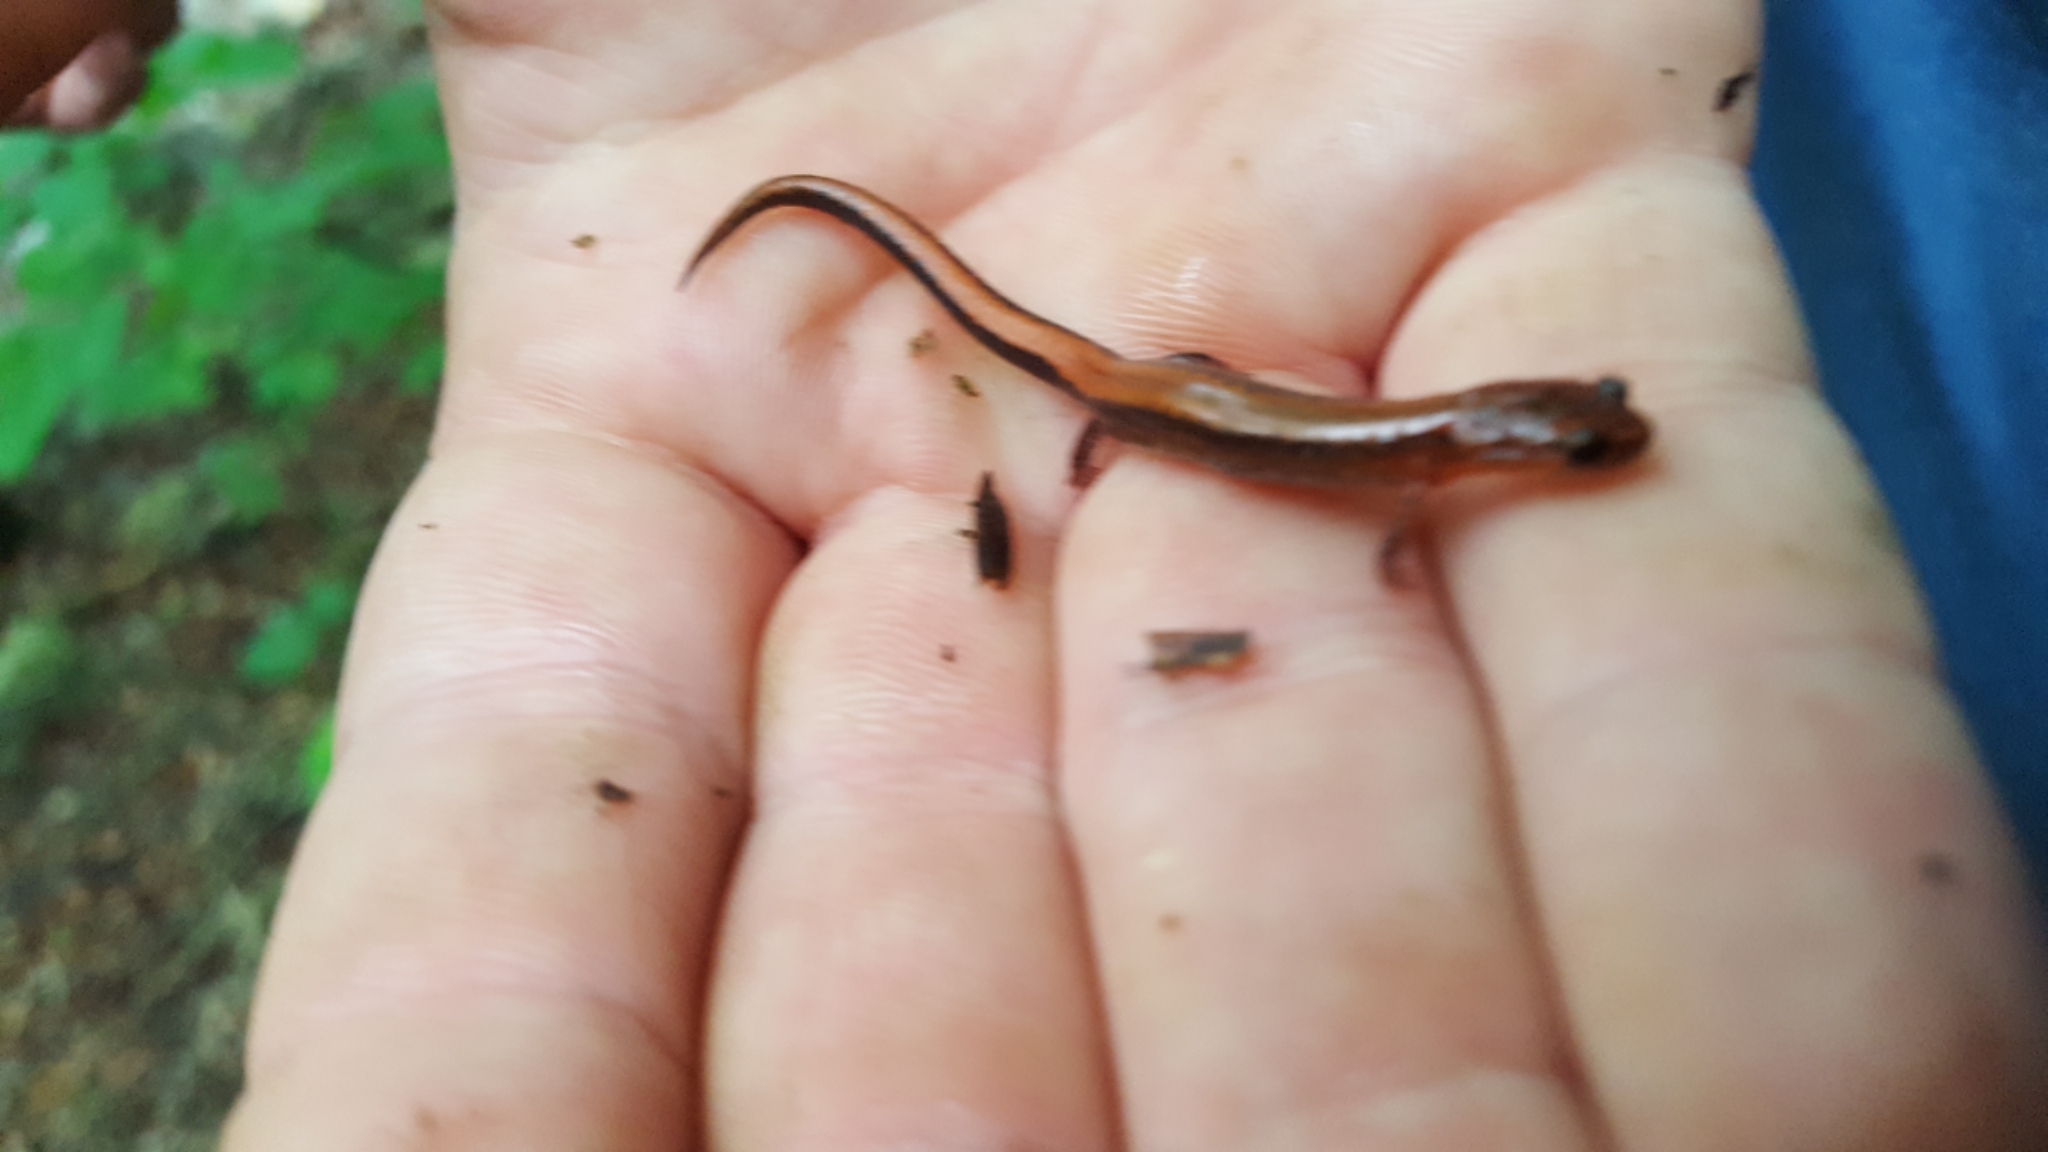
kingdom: Animalia
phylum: Chordata
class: Amphibia
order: Caudata
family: Plethodontidae
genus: Plethodon
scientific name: Plethodon serratus
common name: Southern red-backed salamander
